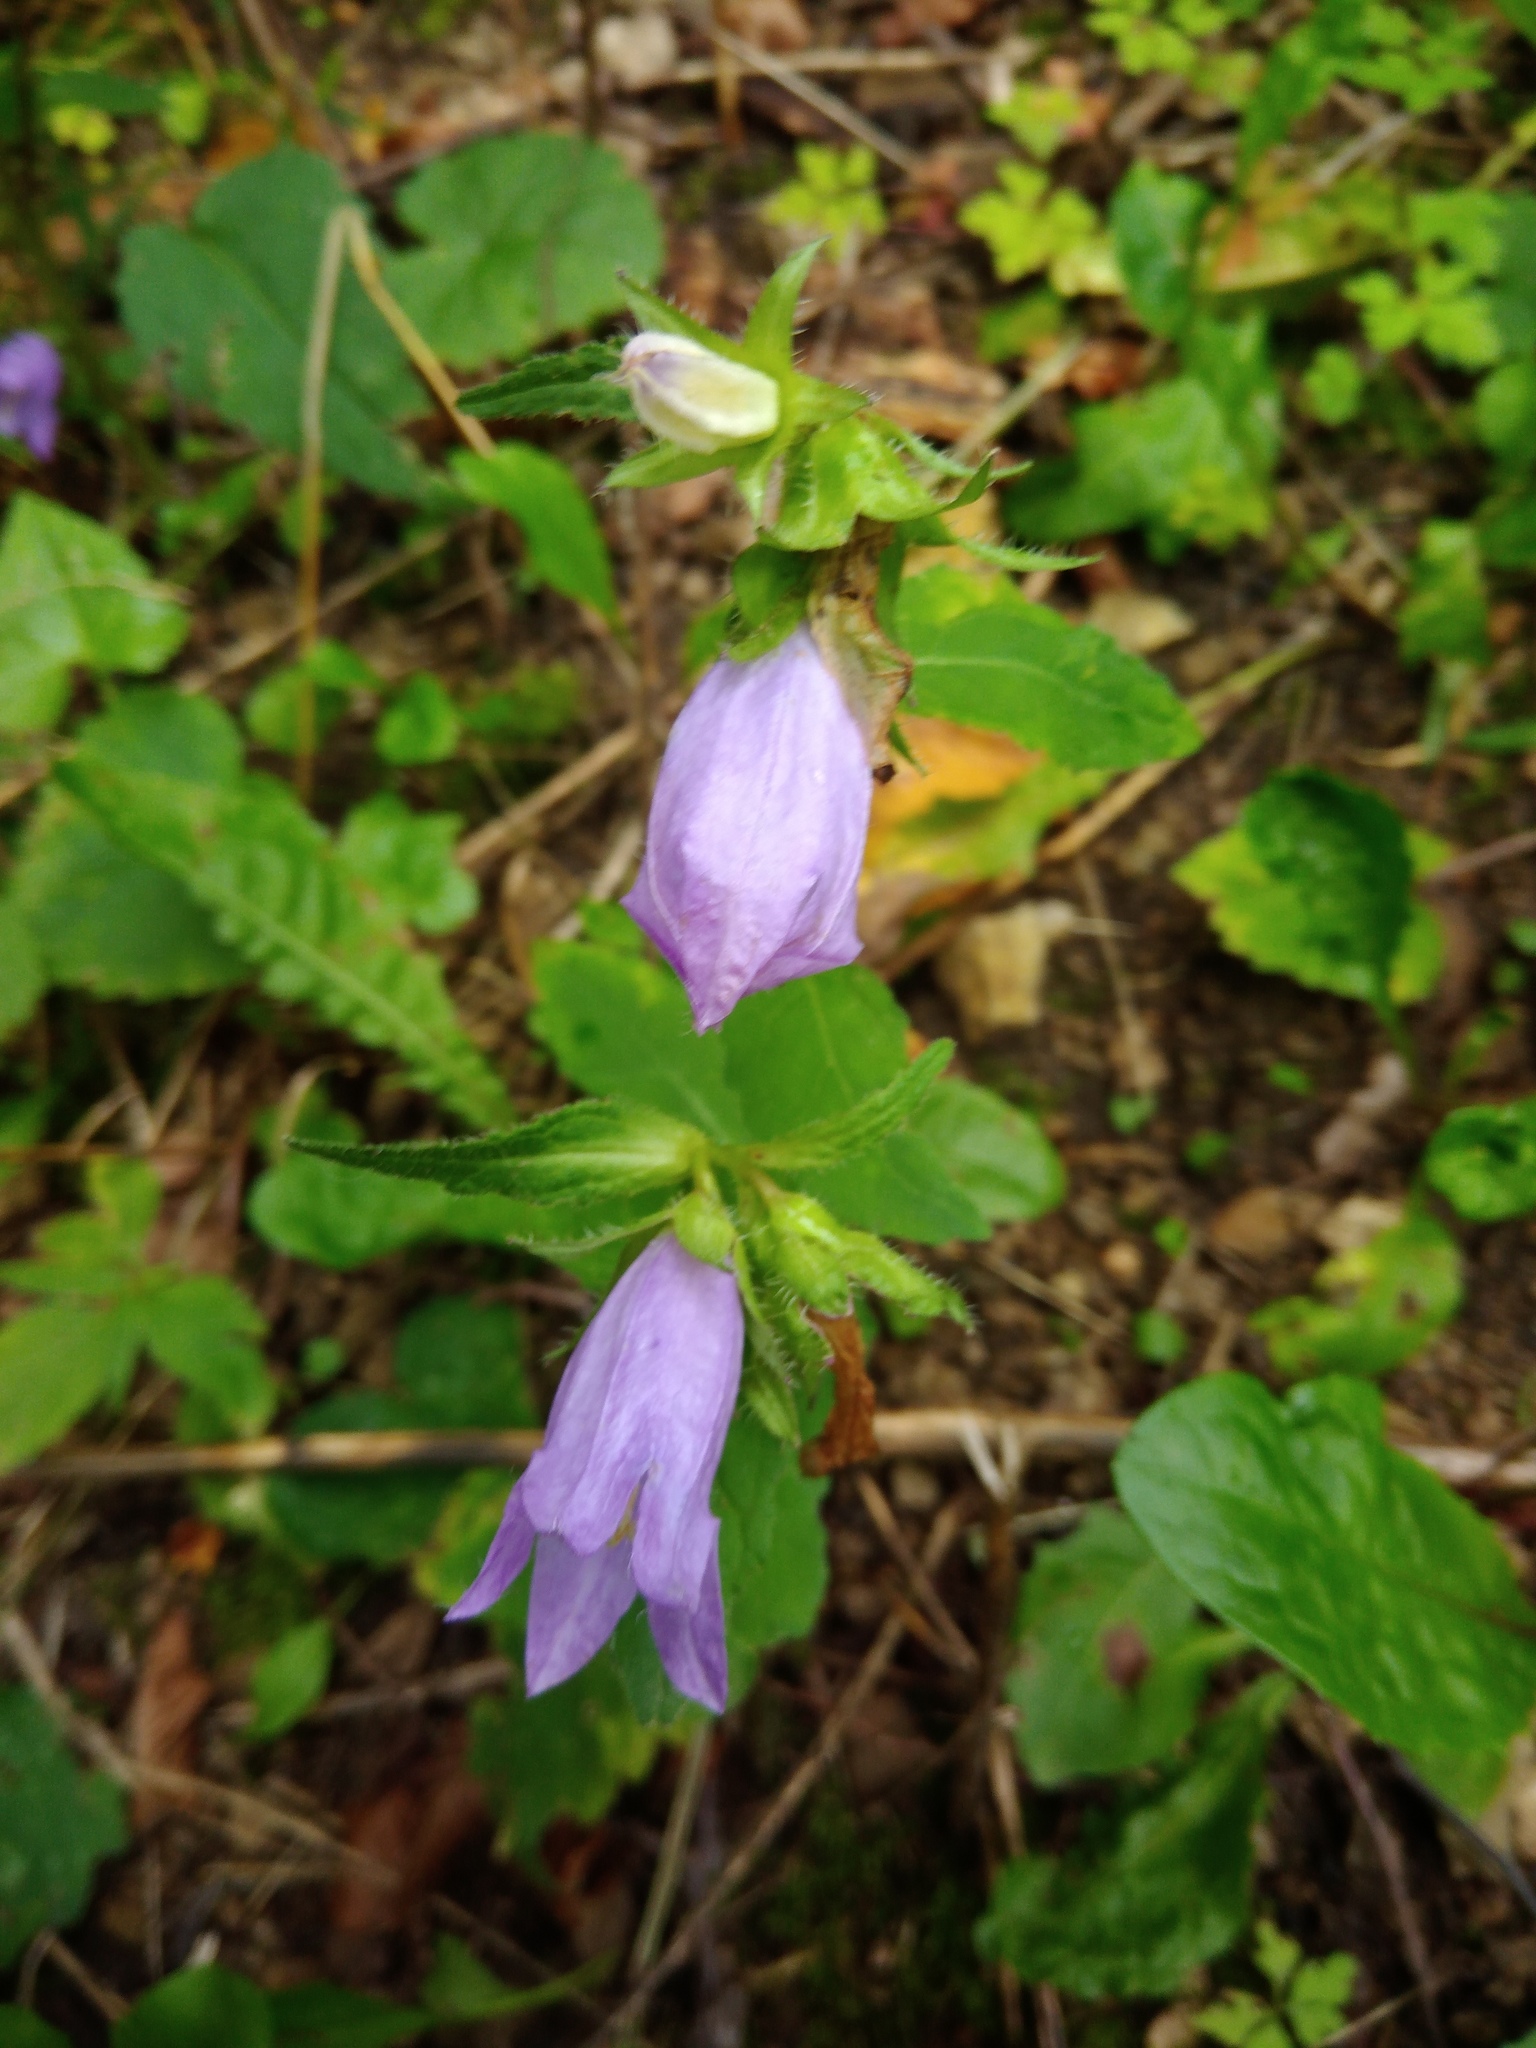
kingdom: Plantae
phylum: Tracheophyta
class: Magnoliopsida
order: Asterales
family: Campanulaceae
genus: Campanula
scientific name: Campanula trachelium
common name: Nettle-leaved bellflower
